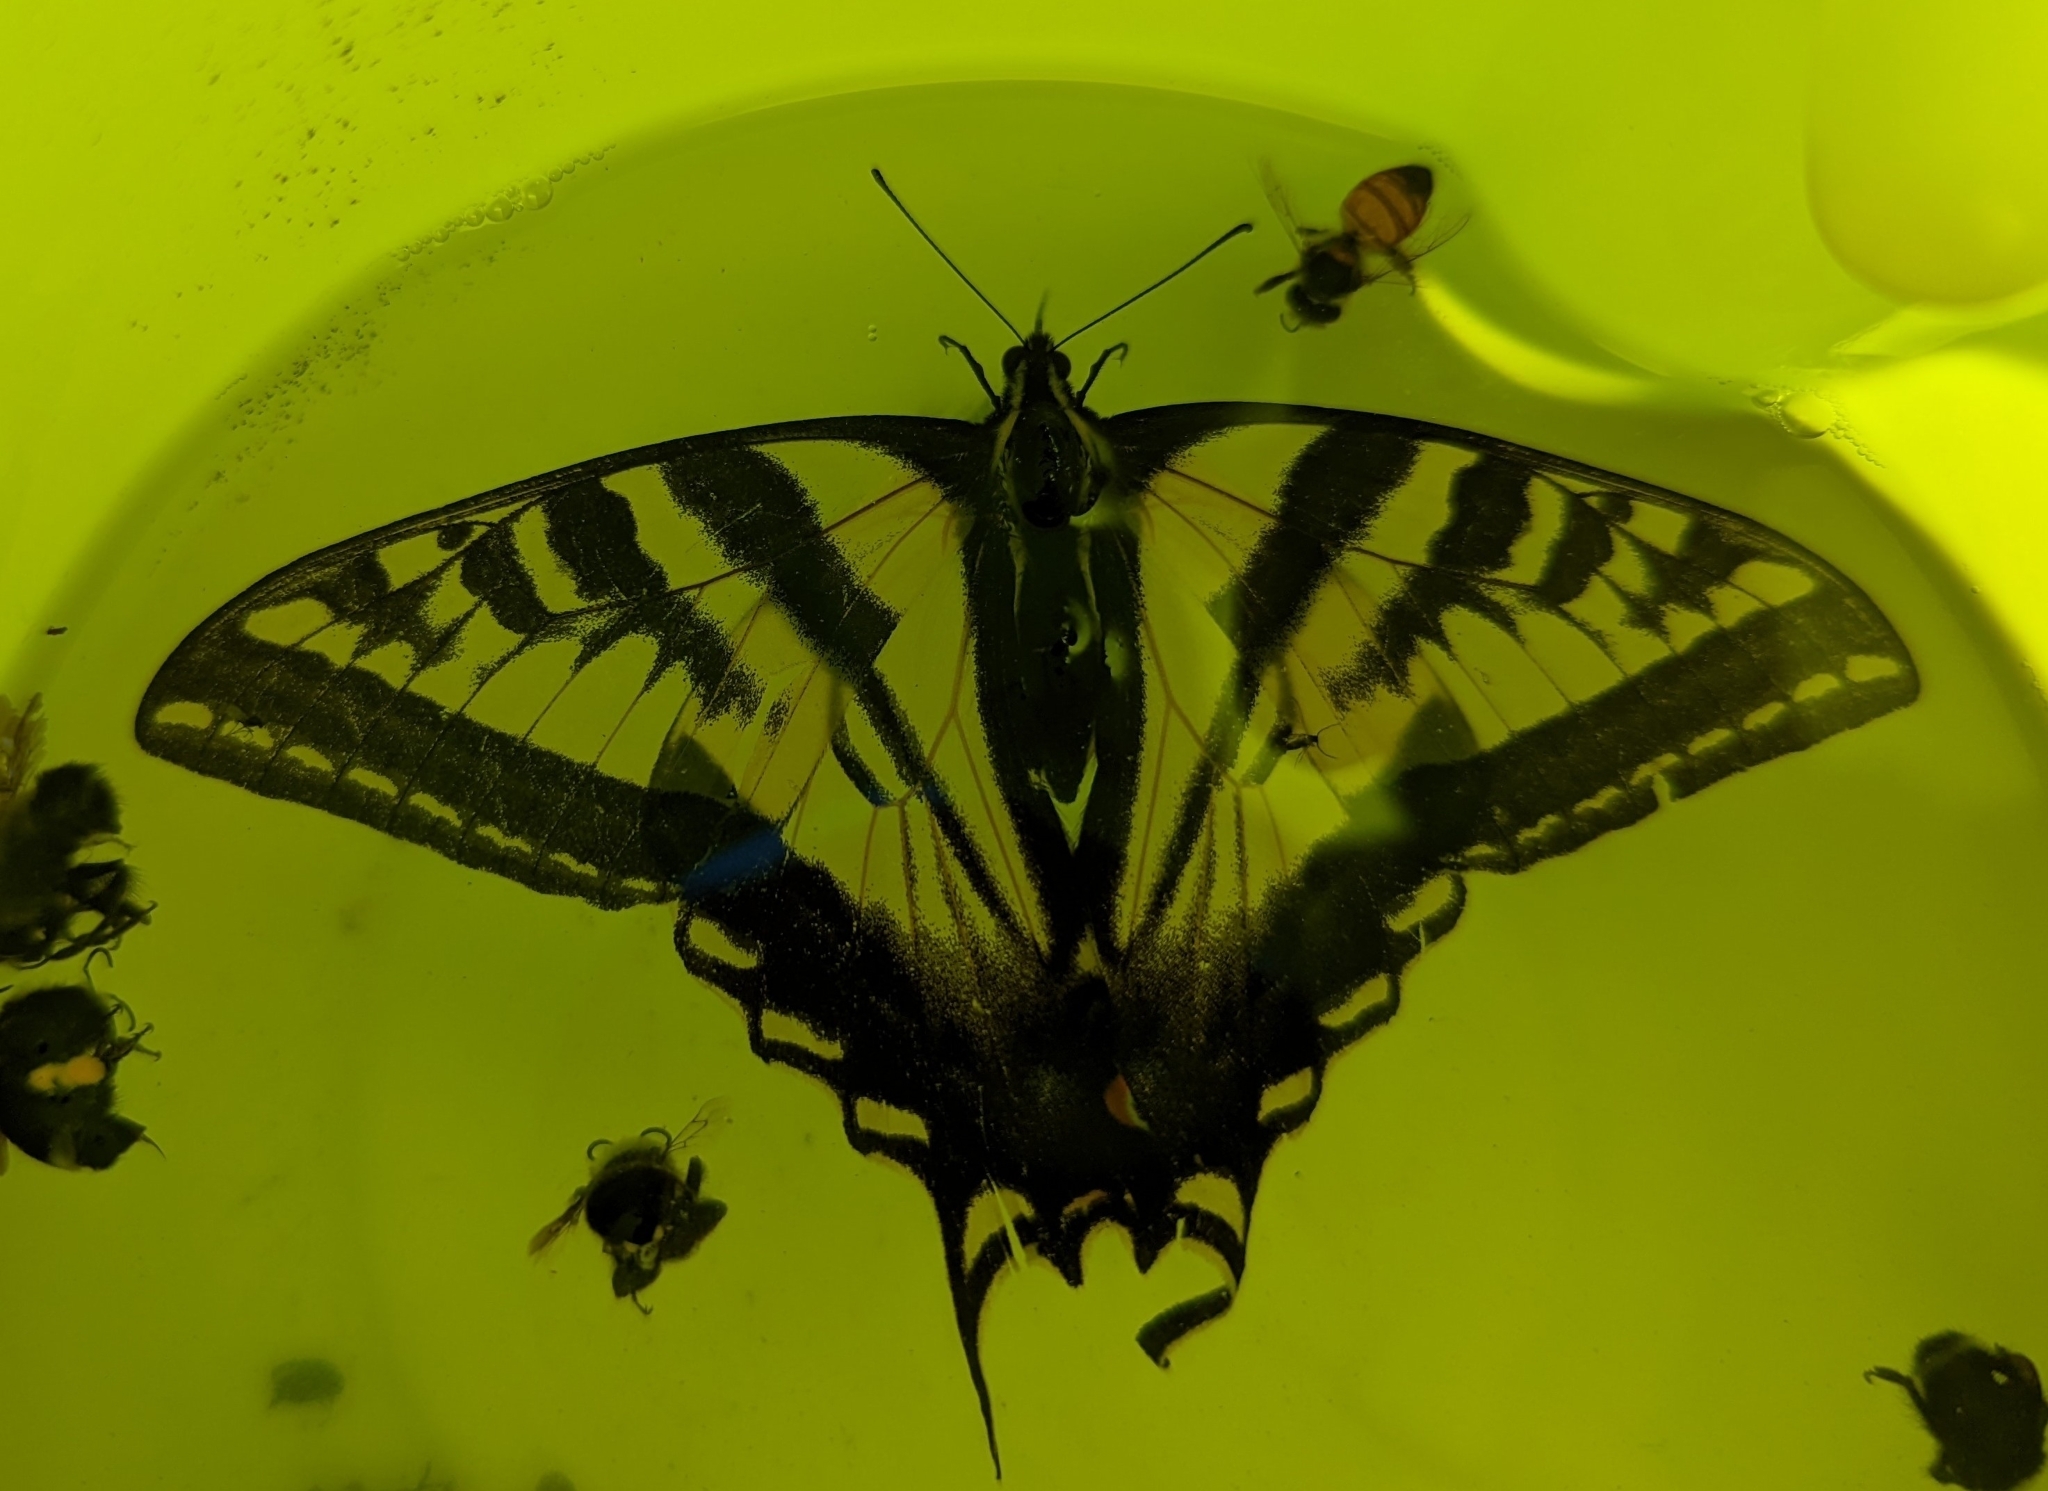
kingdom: Animalia
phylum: Arthropoda
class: Insecta
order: Lepidoptera
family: Papilionidae
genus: Papilio
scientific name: Papilio rutulus
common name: Western tiger swallowtail
